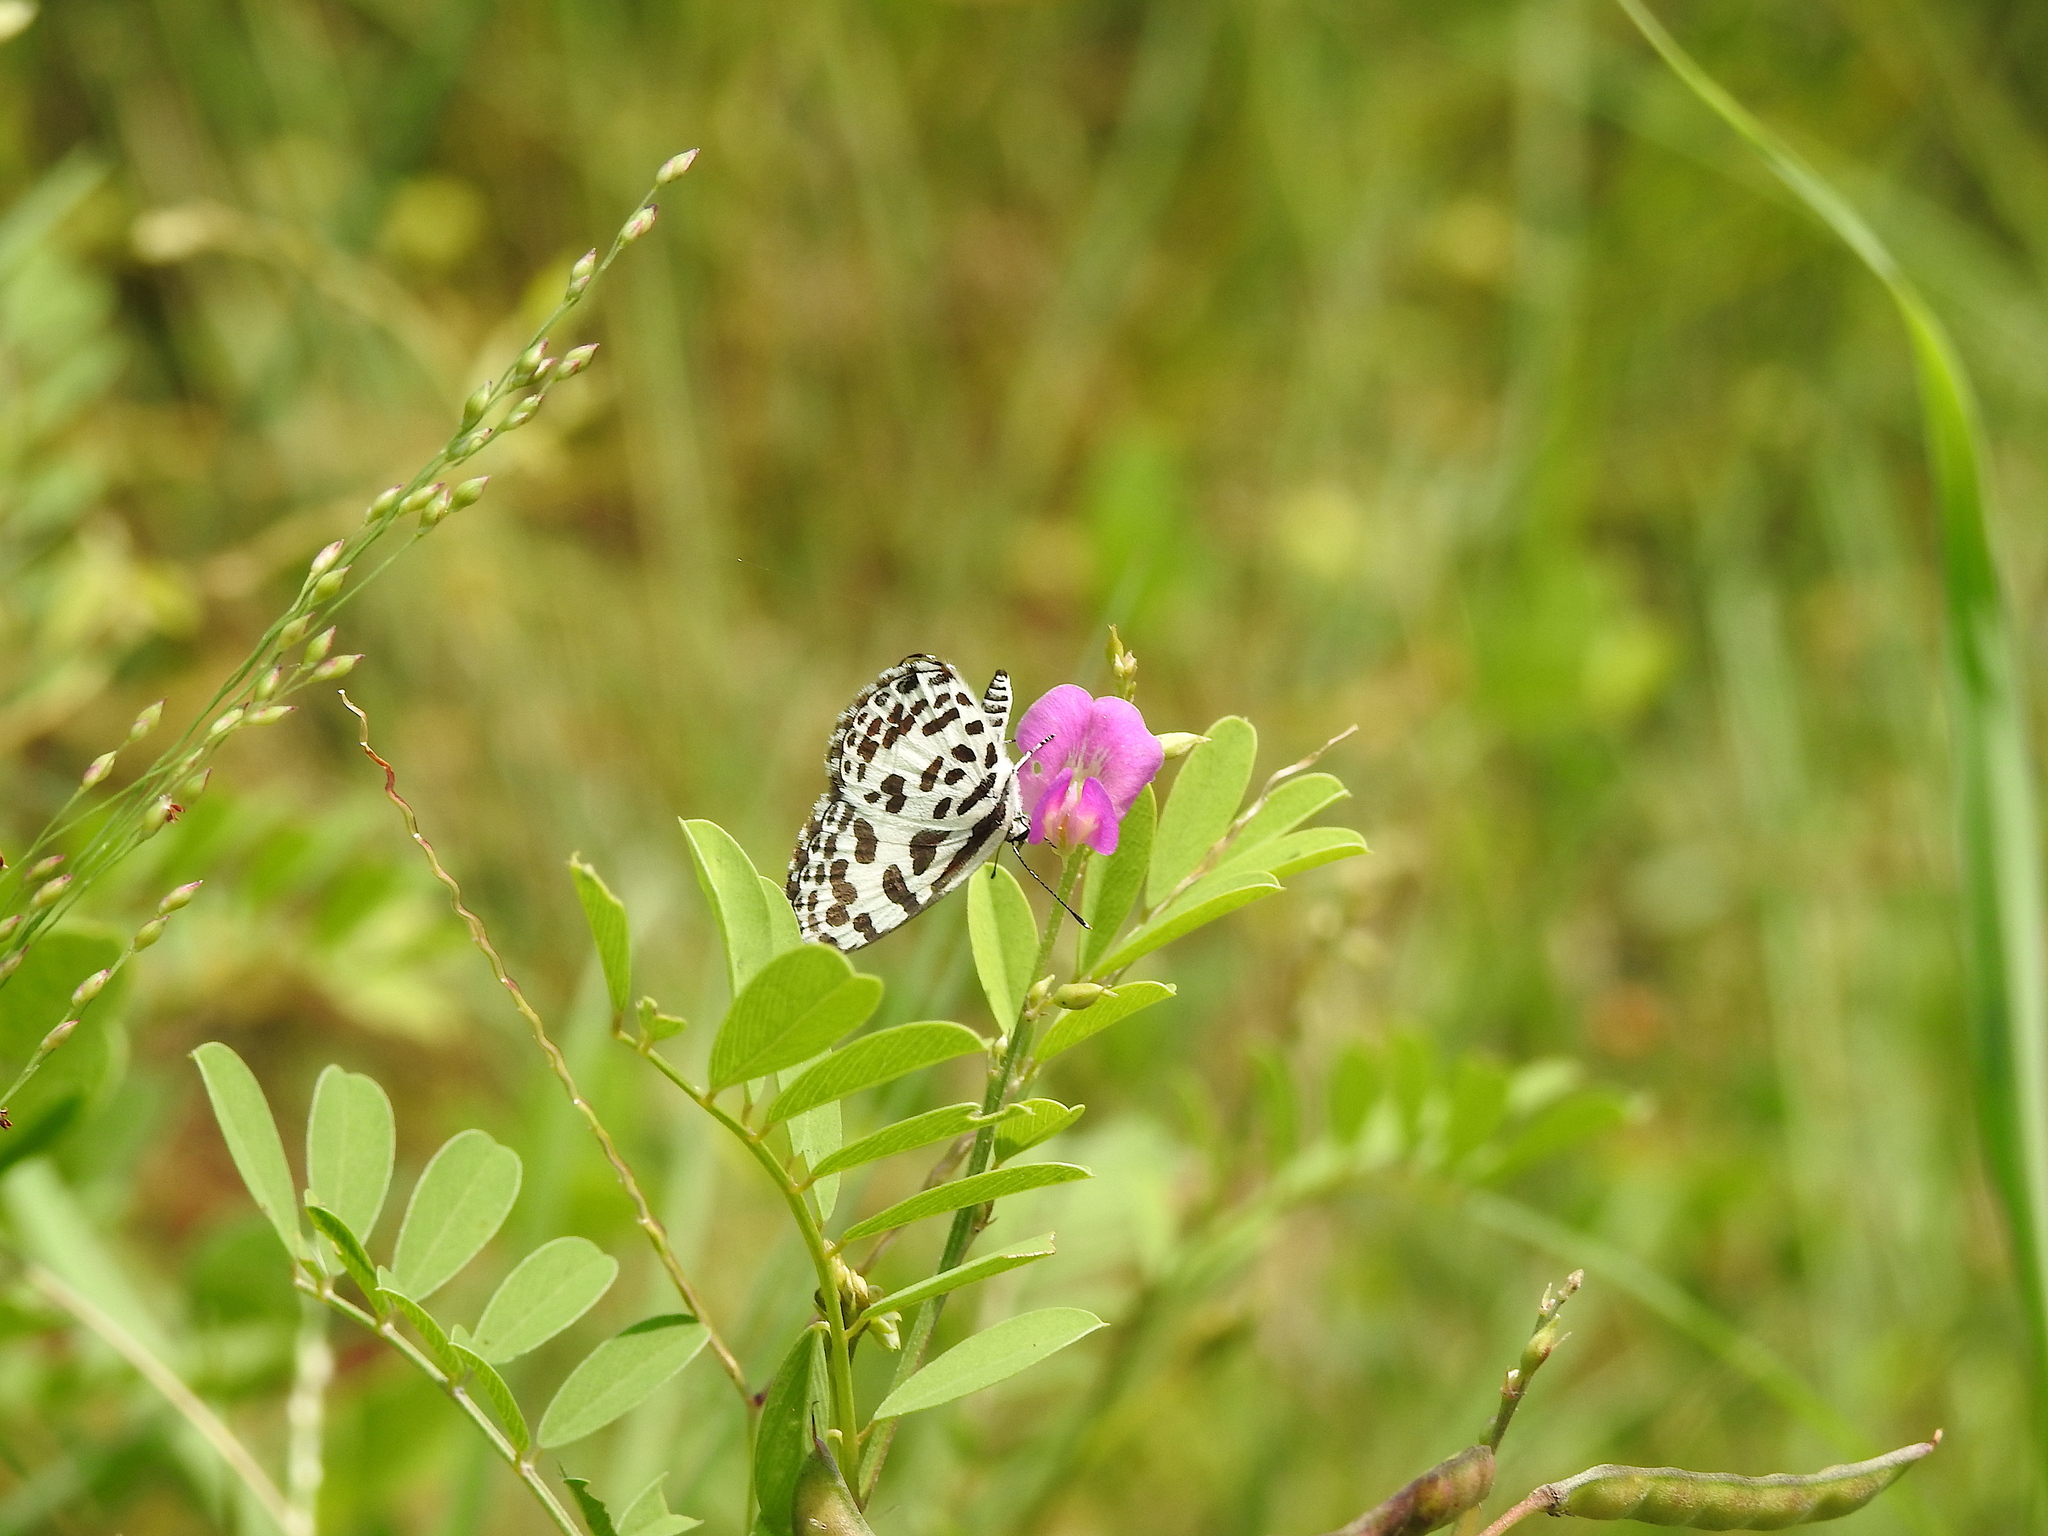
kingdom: Animalia
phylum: Arthropoda
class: Insecta
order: Lepidoptera
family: Lycaenidae
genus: Castalius
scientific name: Castalius rosimon
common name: Common pierrot
